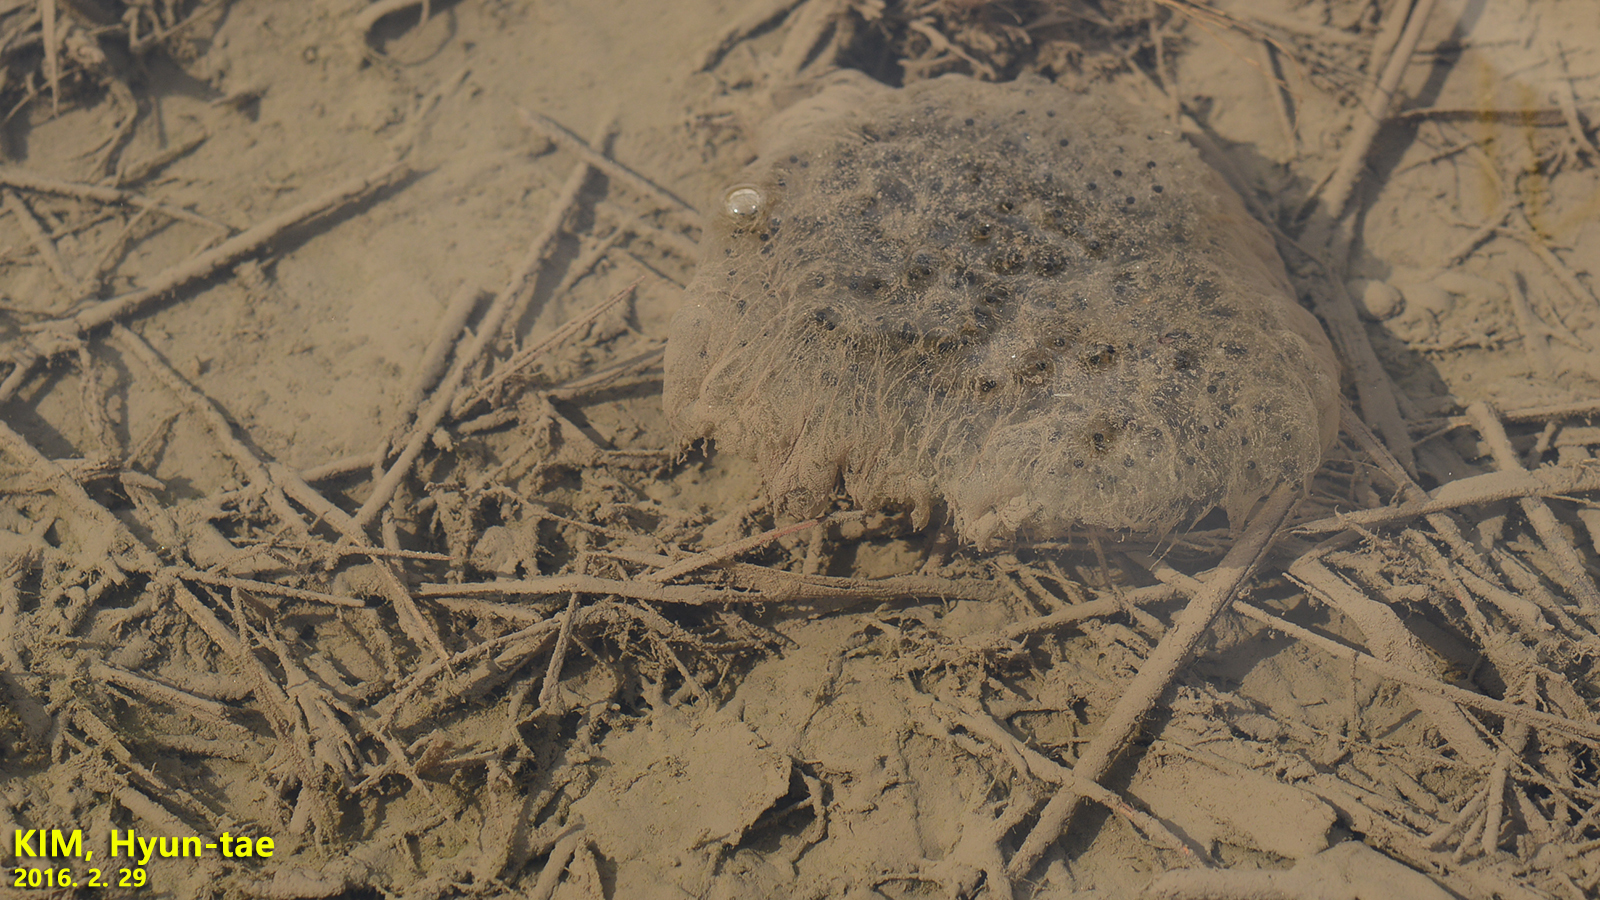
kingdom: Animalia
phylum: Chordata
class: Amphibia
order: Anura
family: Ranidae
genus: Rana
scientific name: Rana uenoi
